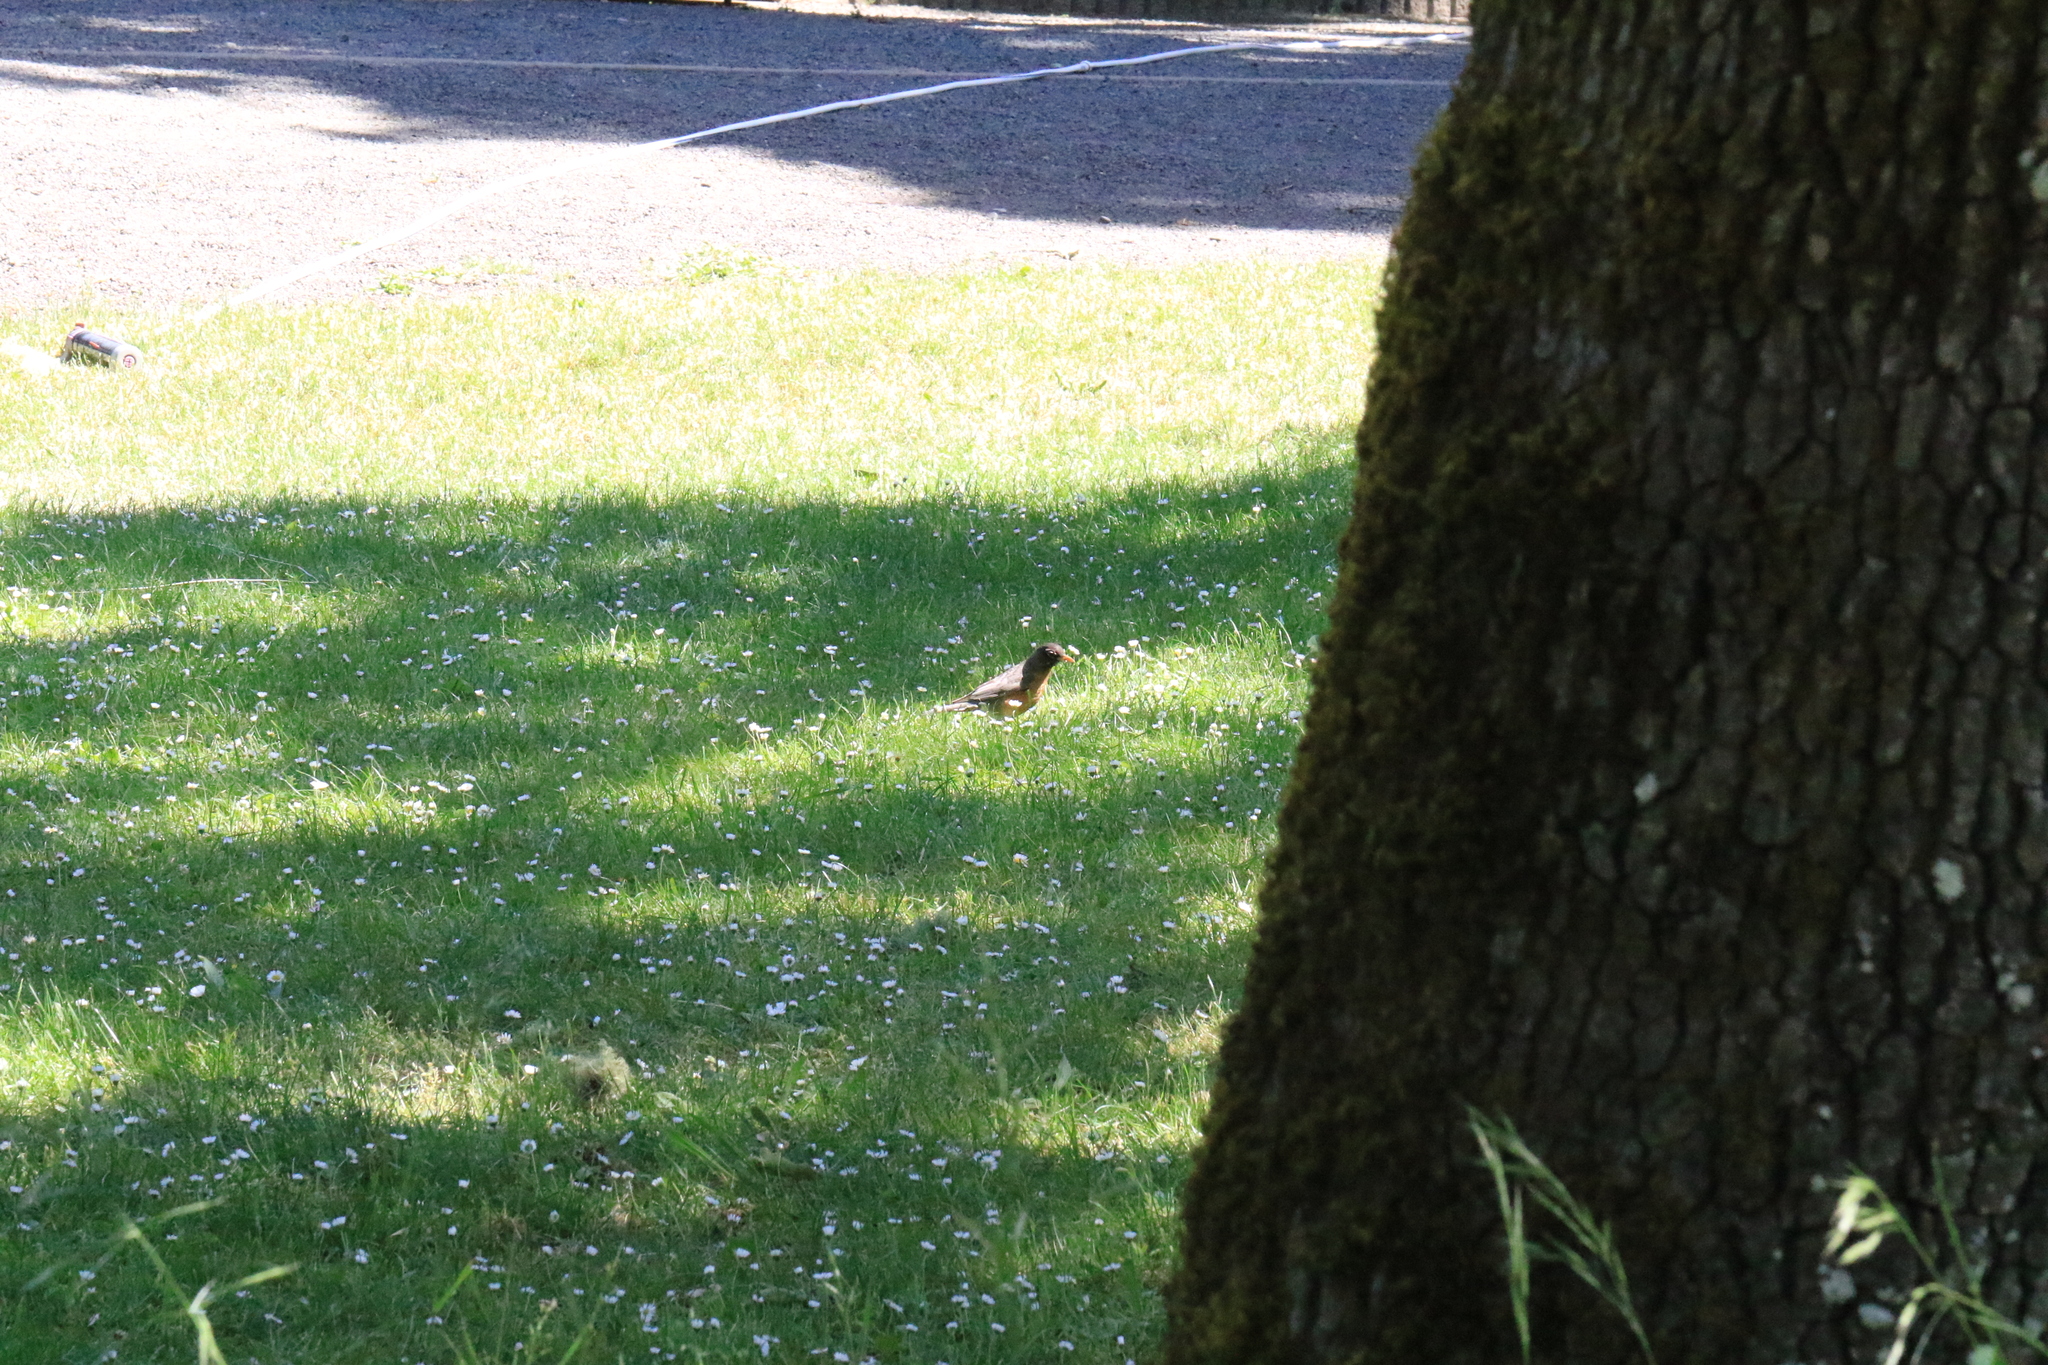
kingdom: Animalia
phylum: Chordata
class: Aves
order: Passeriformes
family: Turdidae
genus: Turdus
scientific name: Turdus migratorius
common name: American robin
